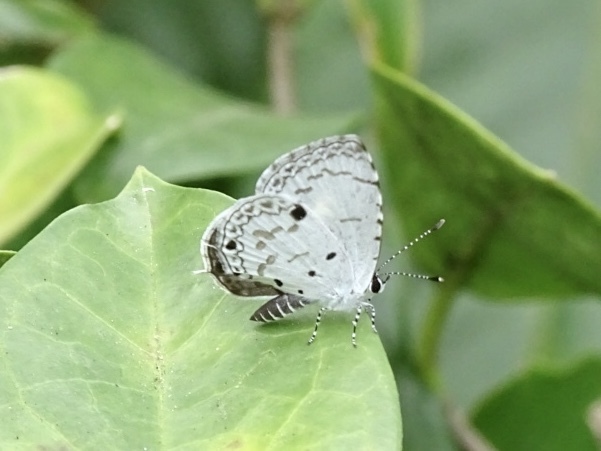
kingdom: Animalia
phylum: Arthropoda
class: Insecta
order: Lepidoptera
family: Lycaenidae
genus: Megisba
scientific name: Megisba malaya
